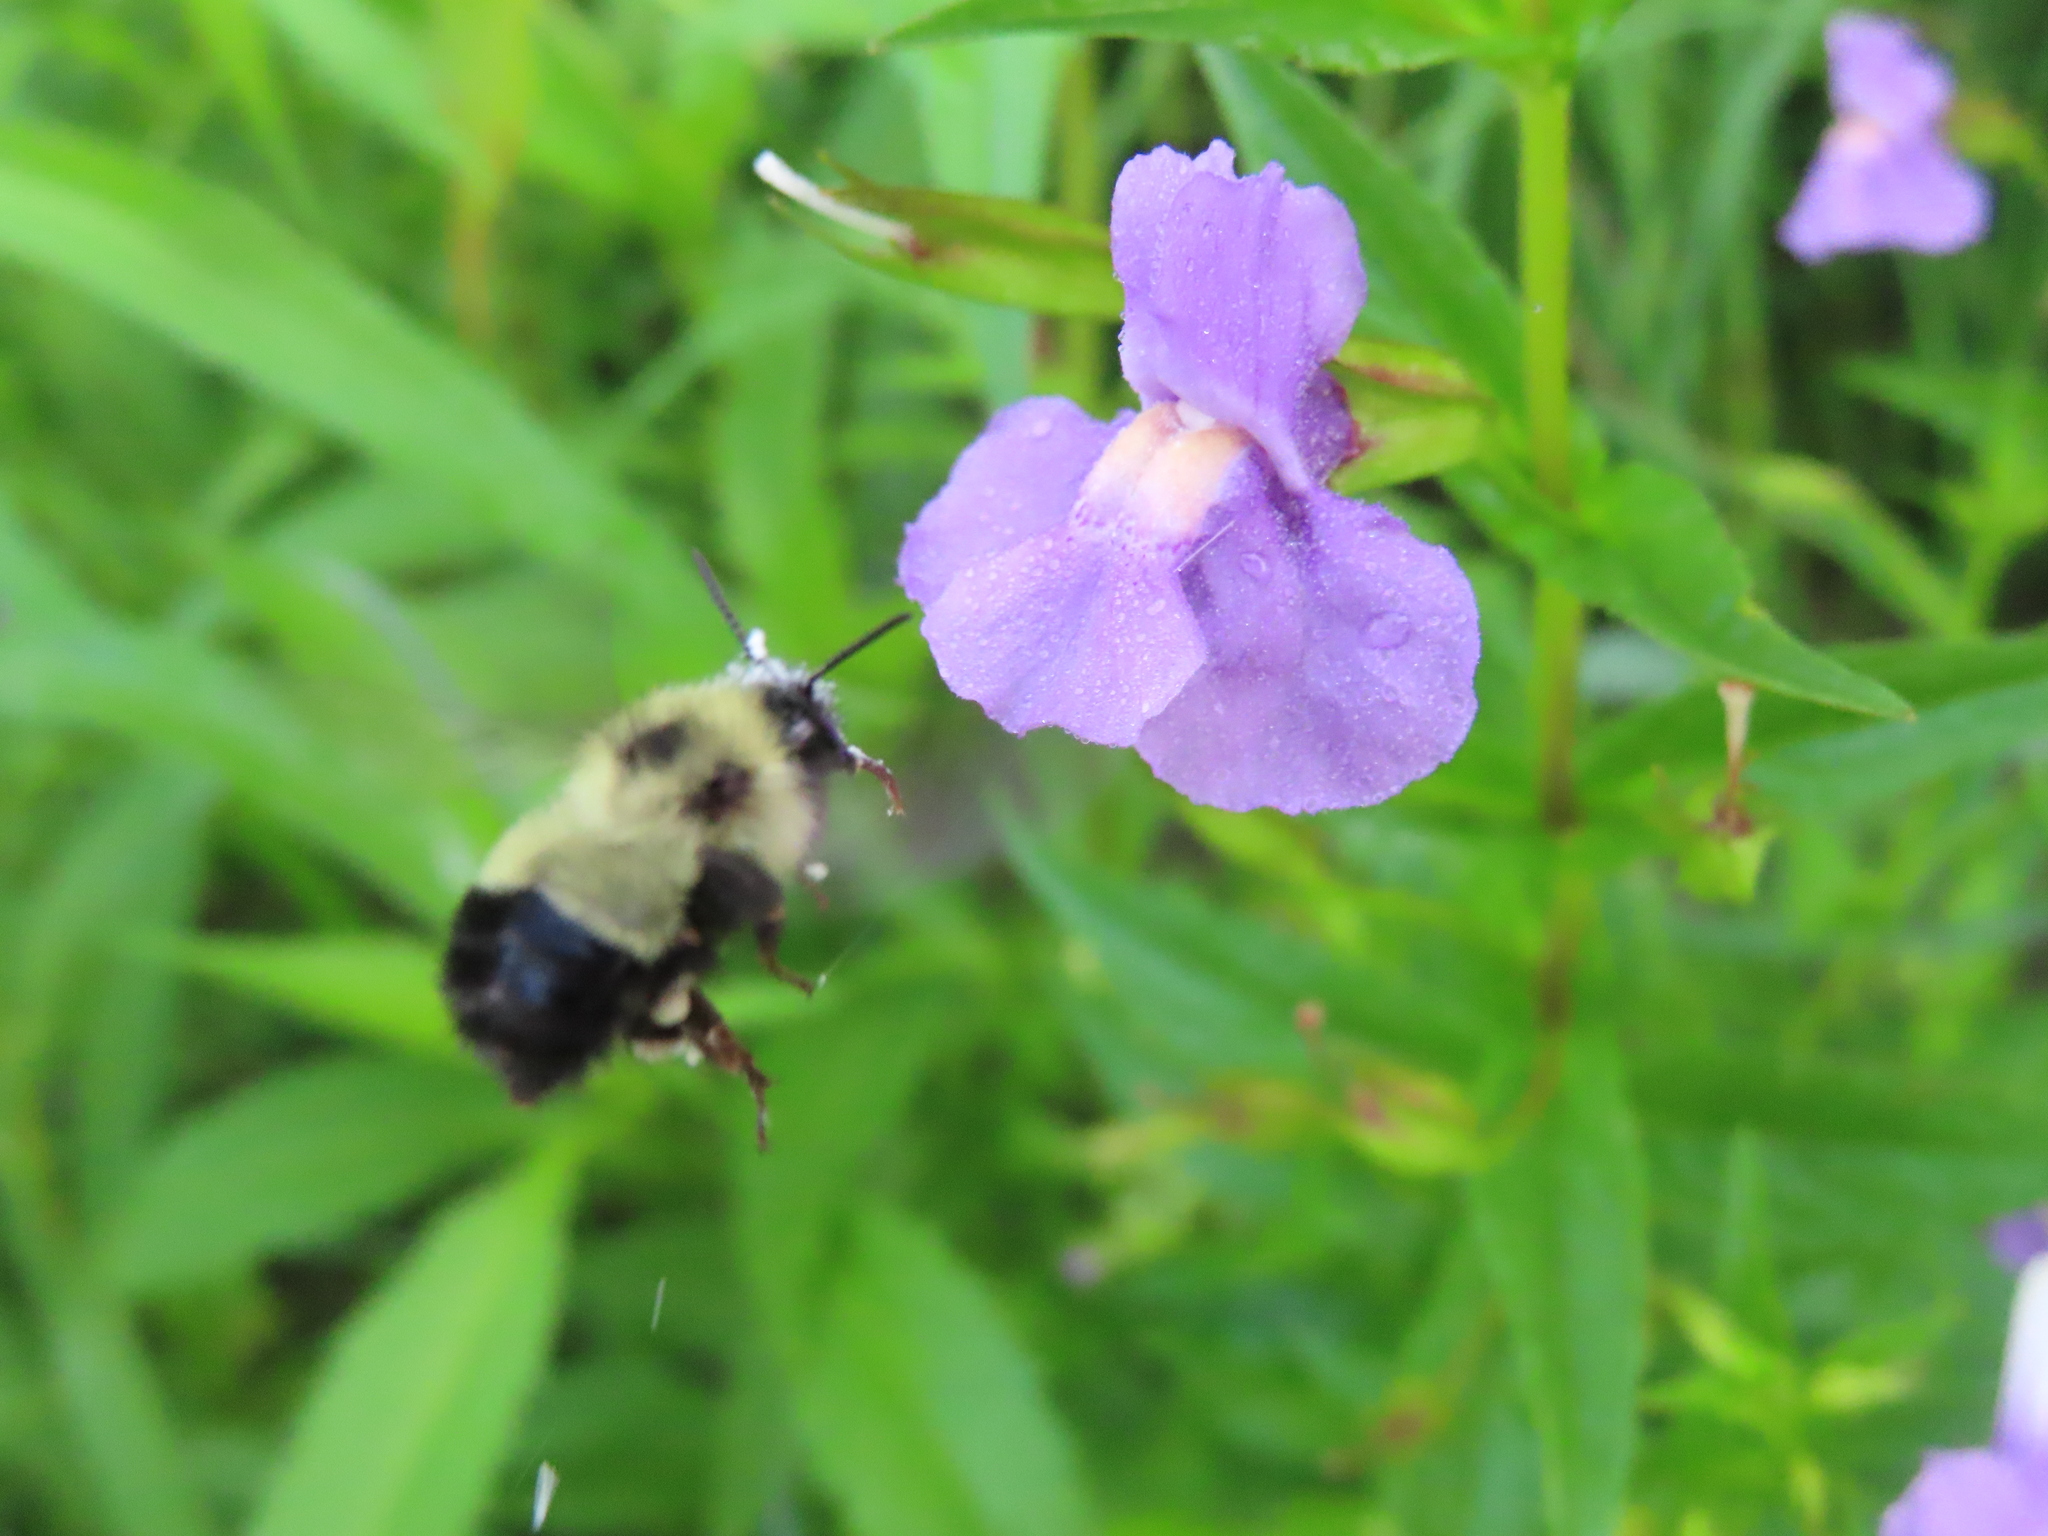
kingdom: Animalia
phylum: Arthropoda
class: Insecta
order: Hymenoptera
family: Apidae
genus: Pyrobombus
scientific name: Pyrobombus
